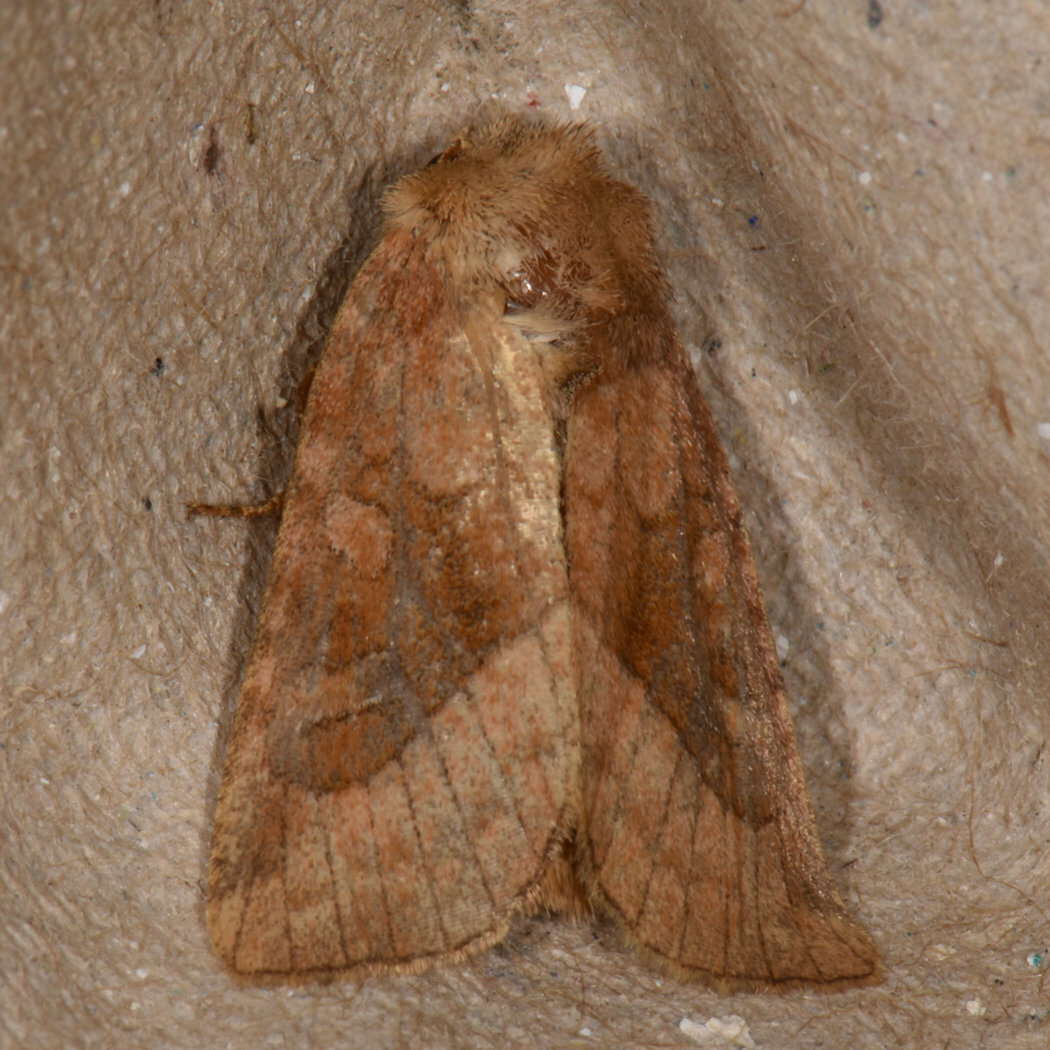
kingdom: Animalia
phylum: Arthropoda
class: Insecta
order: Lepidoptera
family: Noctuidae
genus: Lacinipolia
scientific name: Lacinipolia lorea
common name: Bridled arches moth
